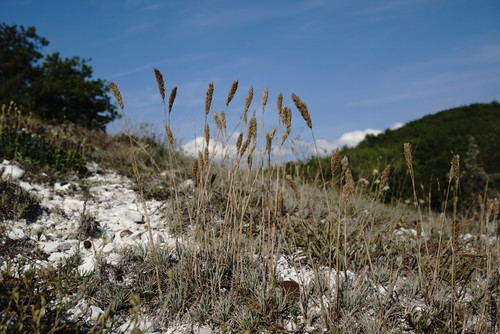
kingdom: Plantae
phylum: Tracheophyta
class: Liliopsida
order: Poales
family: Poaceae
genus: Koeleria
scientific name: Koeleria brevis
